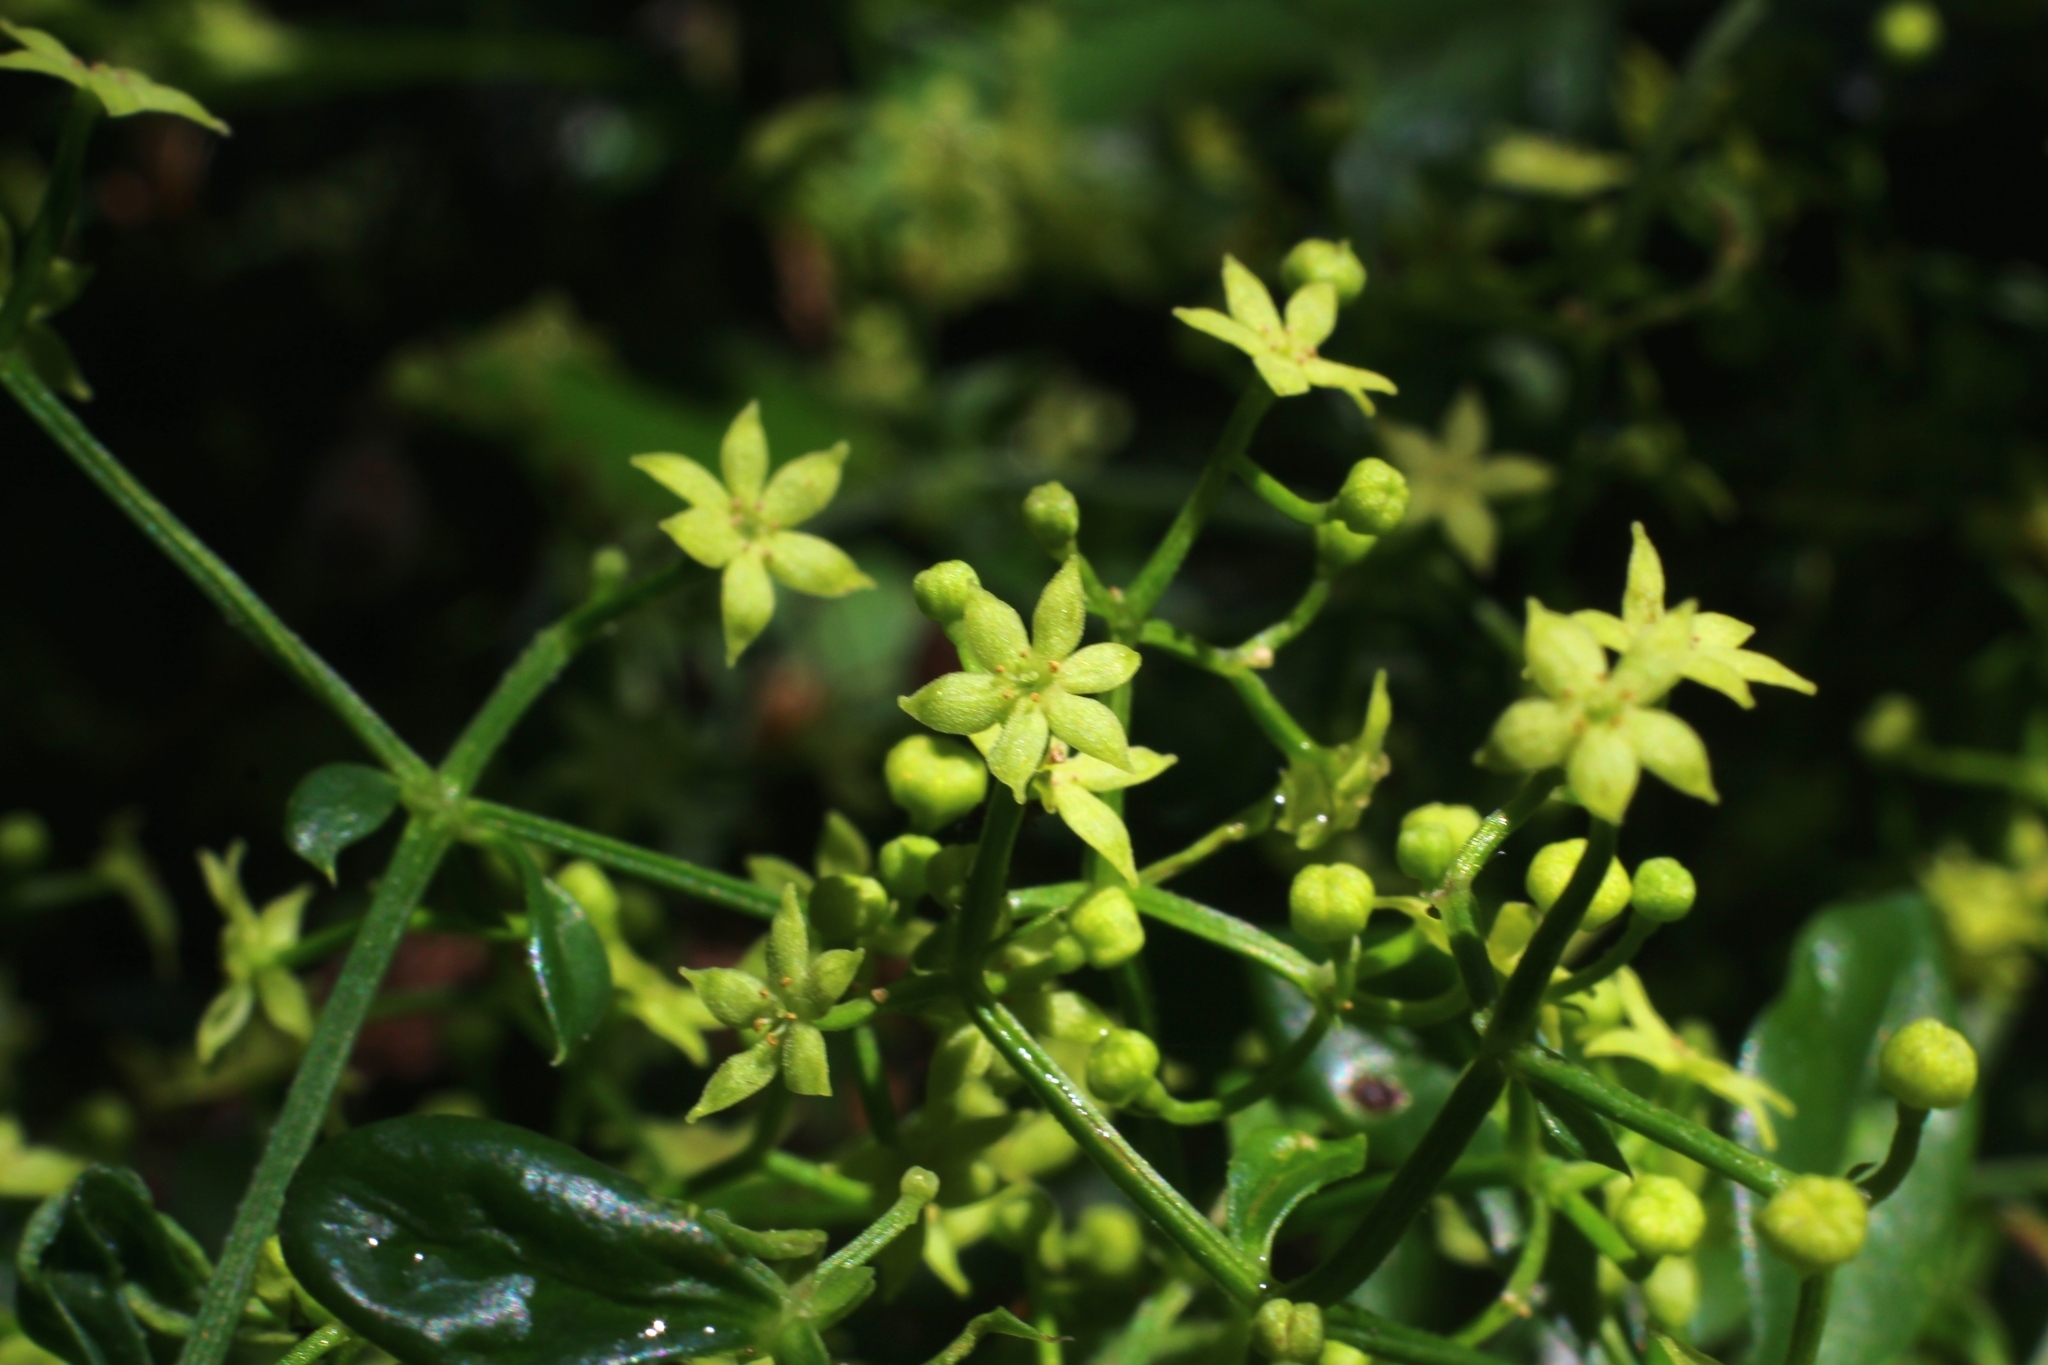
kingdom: Plantae
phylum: Tracheophyta
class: Magnoliopsida
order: Gentianales
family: Rubiaceae
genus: Rubia
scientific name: Rubia peregrina
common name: Wild madder
